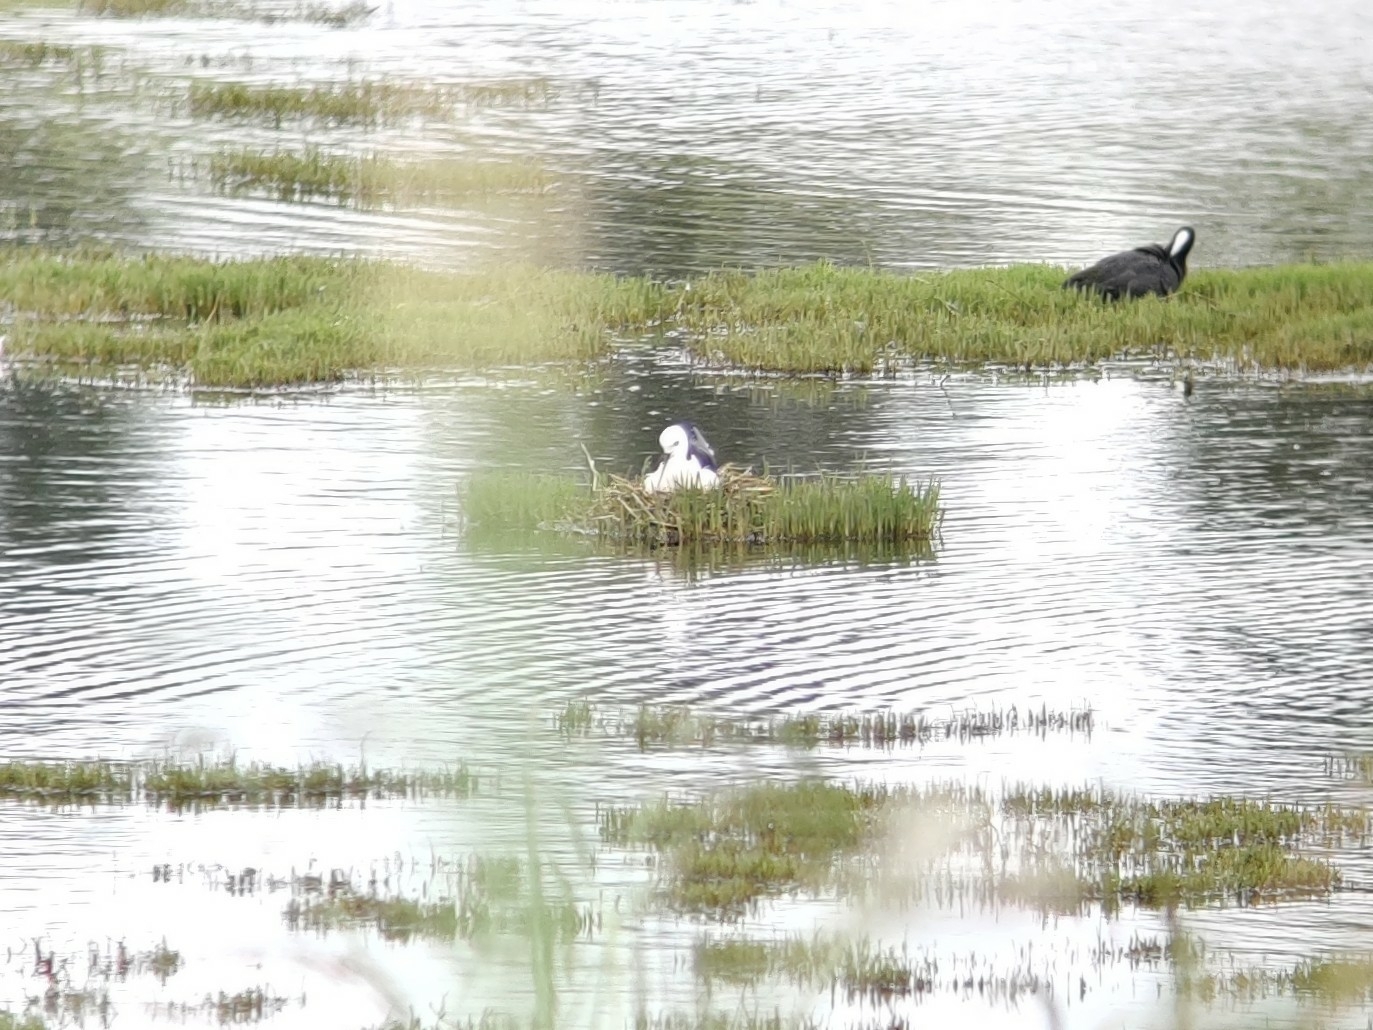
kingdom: Animalia
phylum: Chordata
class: Aves
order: Charadriiformes
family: Recurvirostridae
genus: Himantopus
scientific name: Himantopus leucocephalus
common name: White-headed stilt
